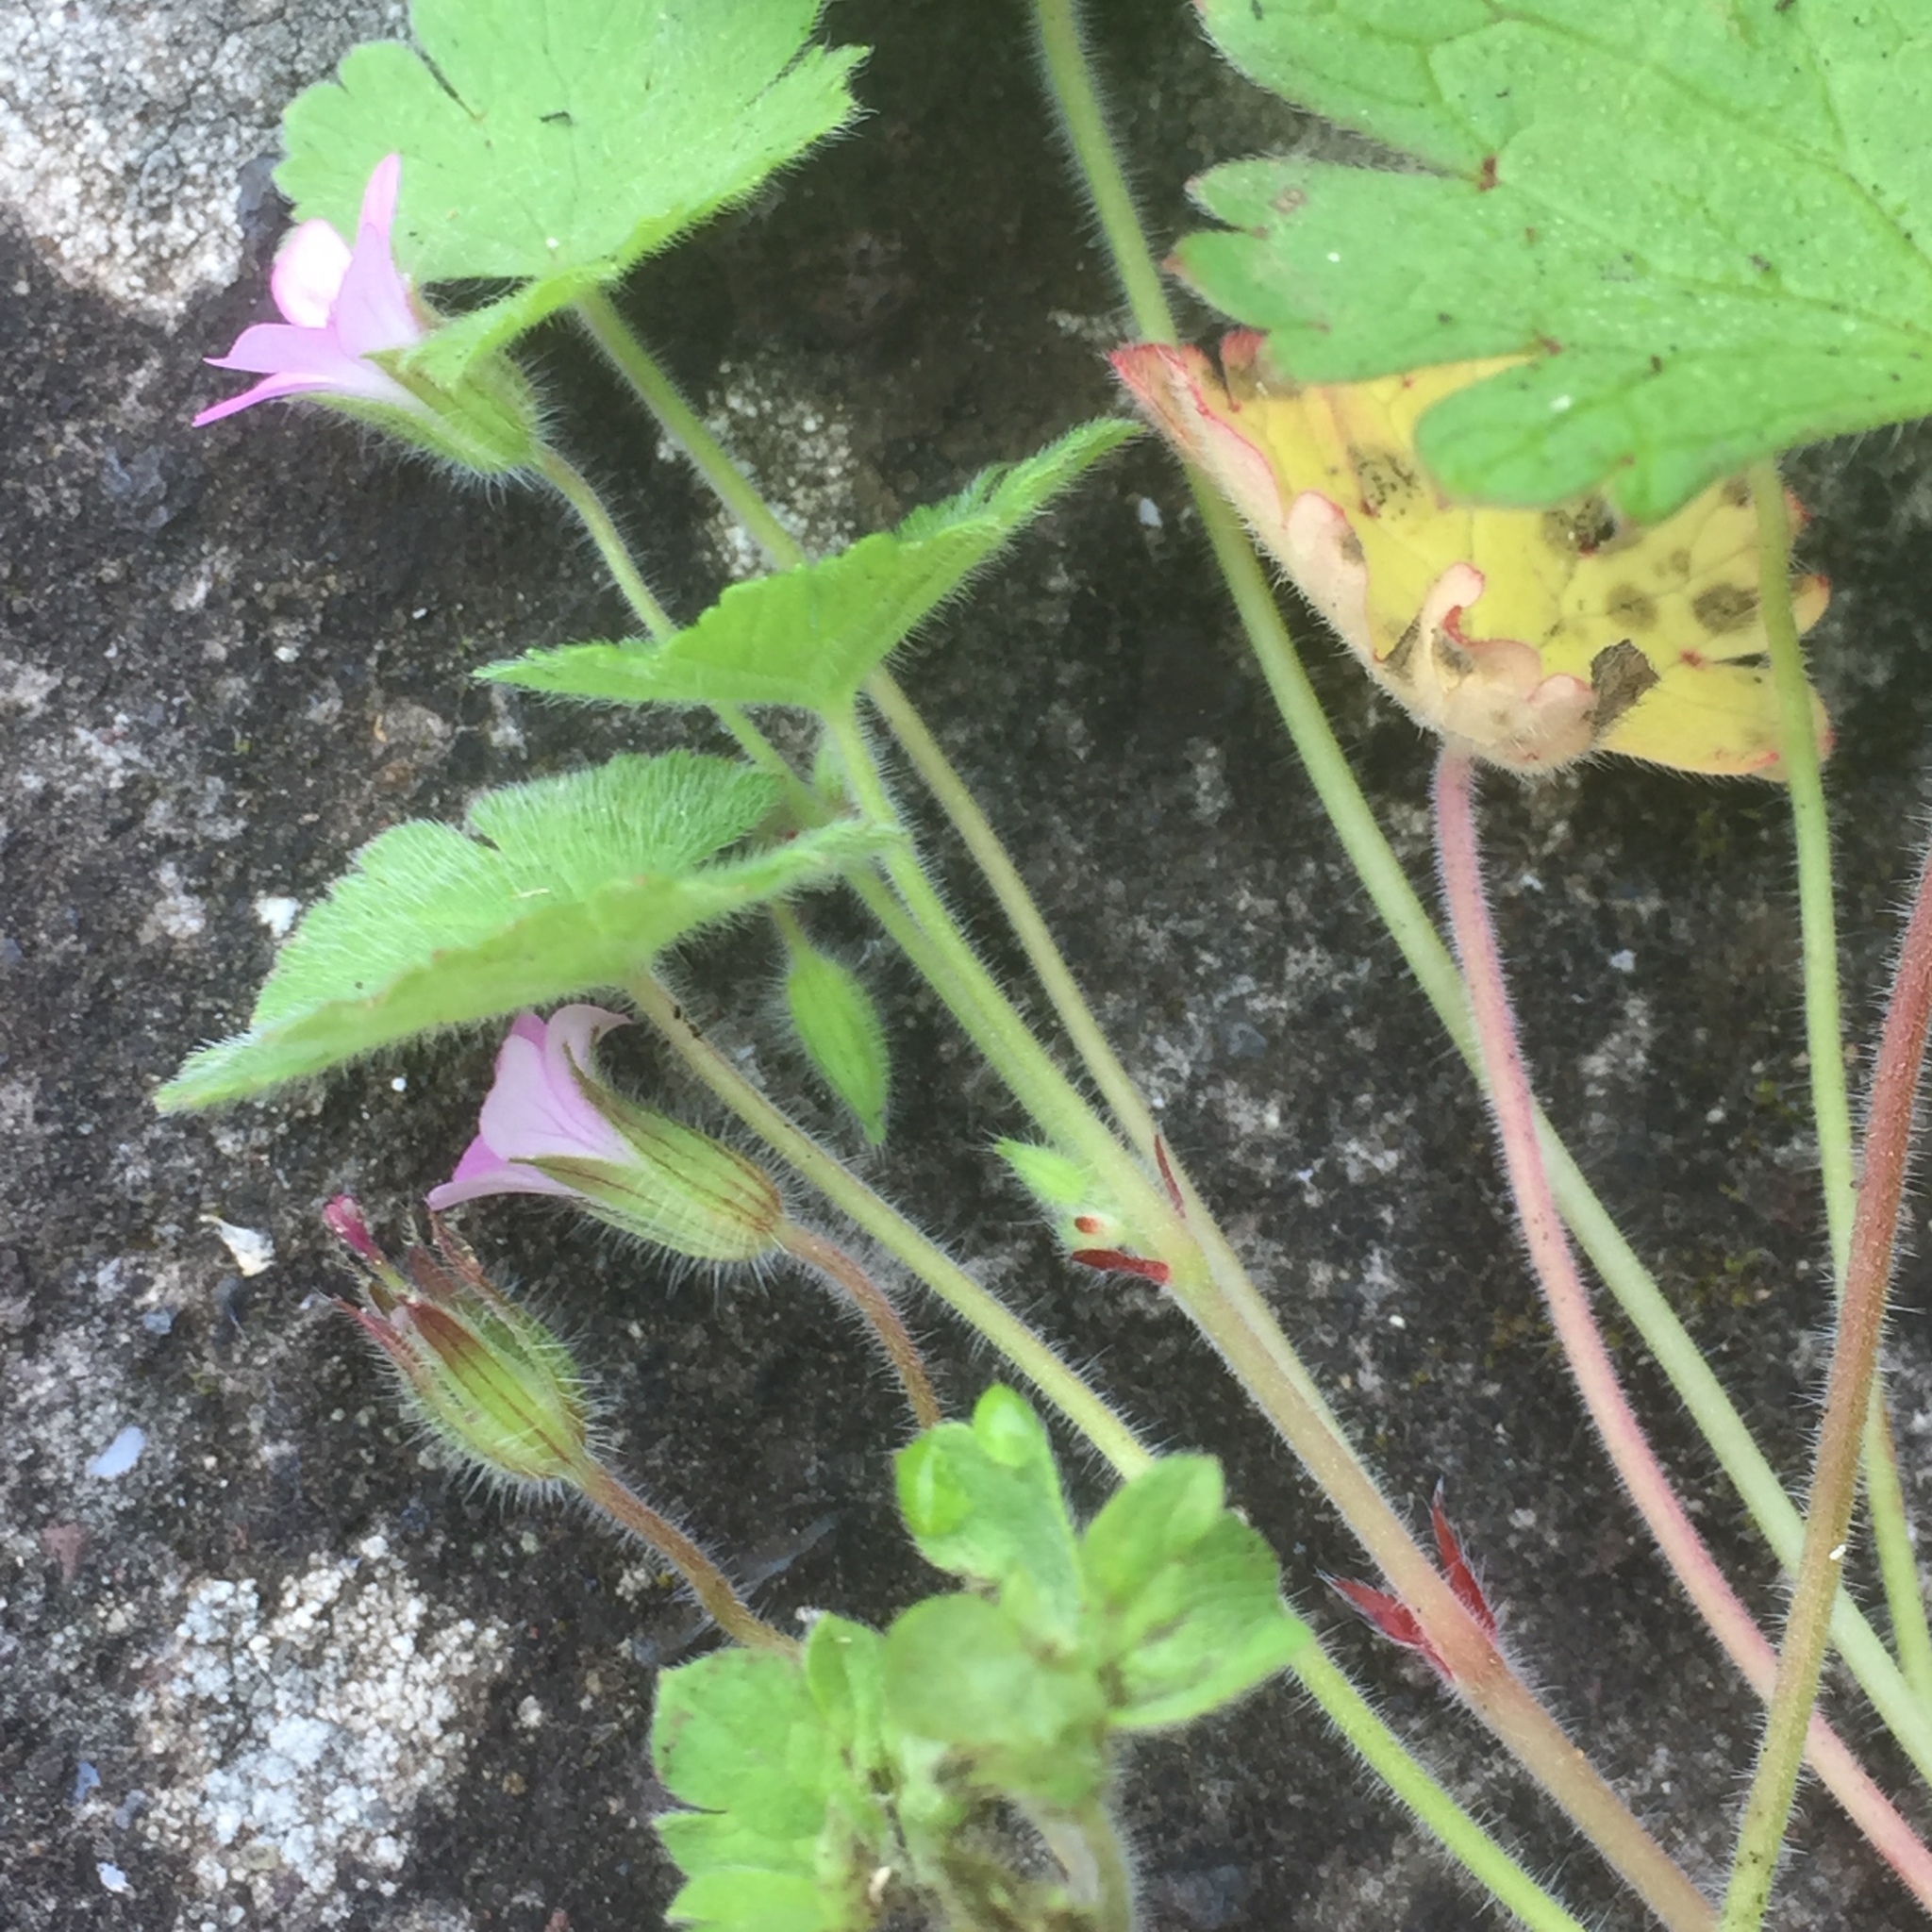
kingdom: Plantae
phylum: Tracheophyta
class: Magnoliopsida
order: Geraniales
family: Geraniaceae
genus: Geranium
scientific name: Geranium rotundifolium
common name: Round-leaved crane's-bill
